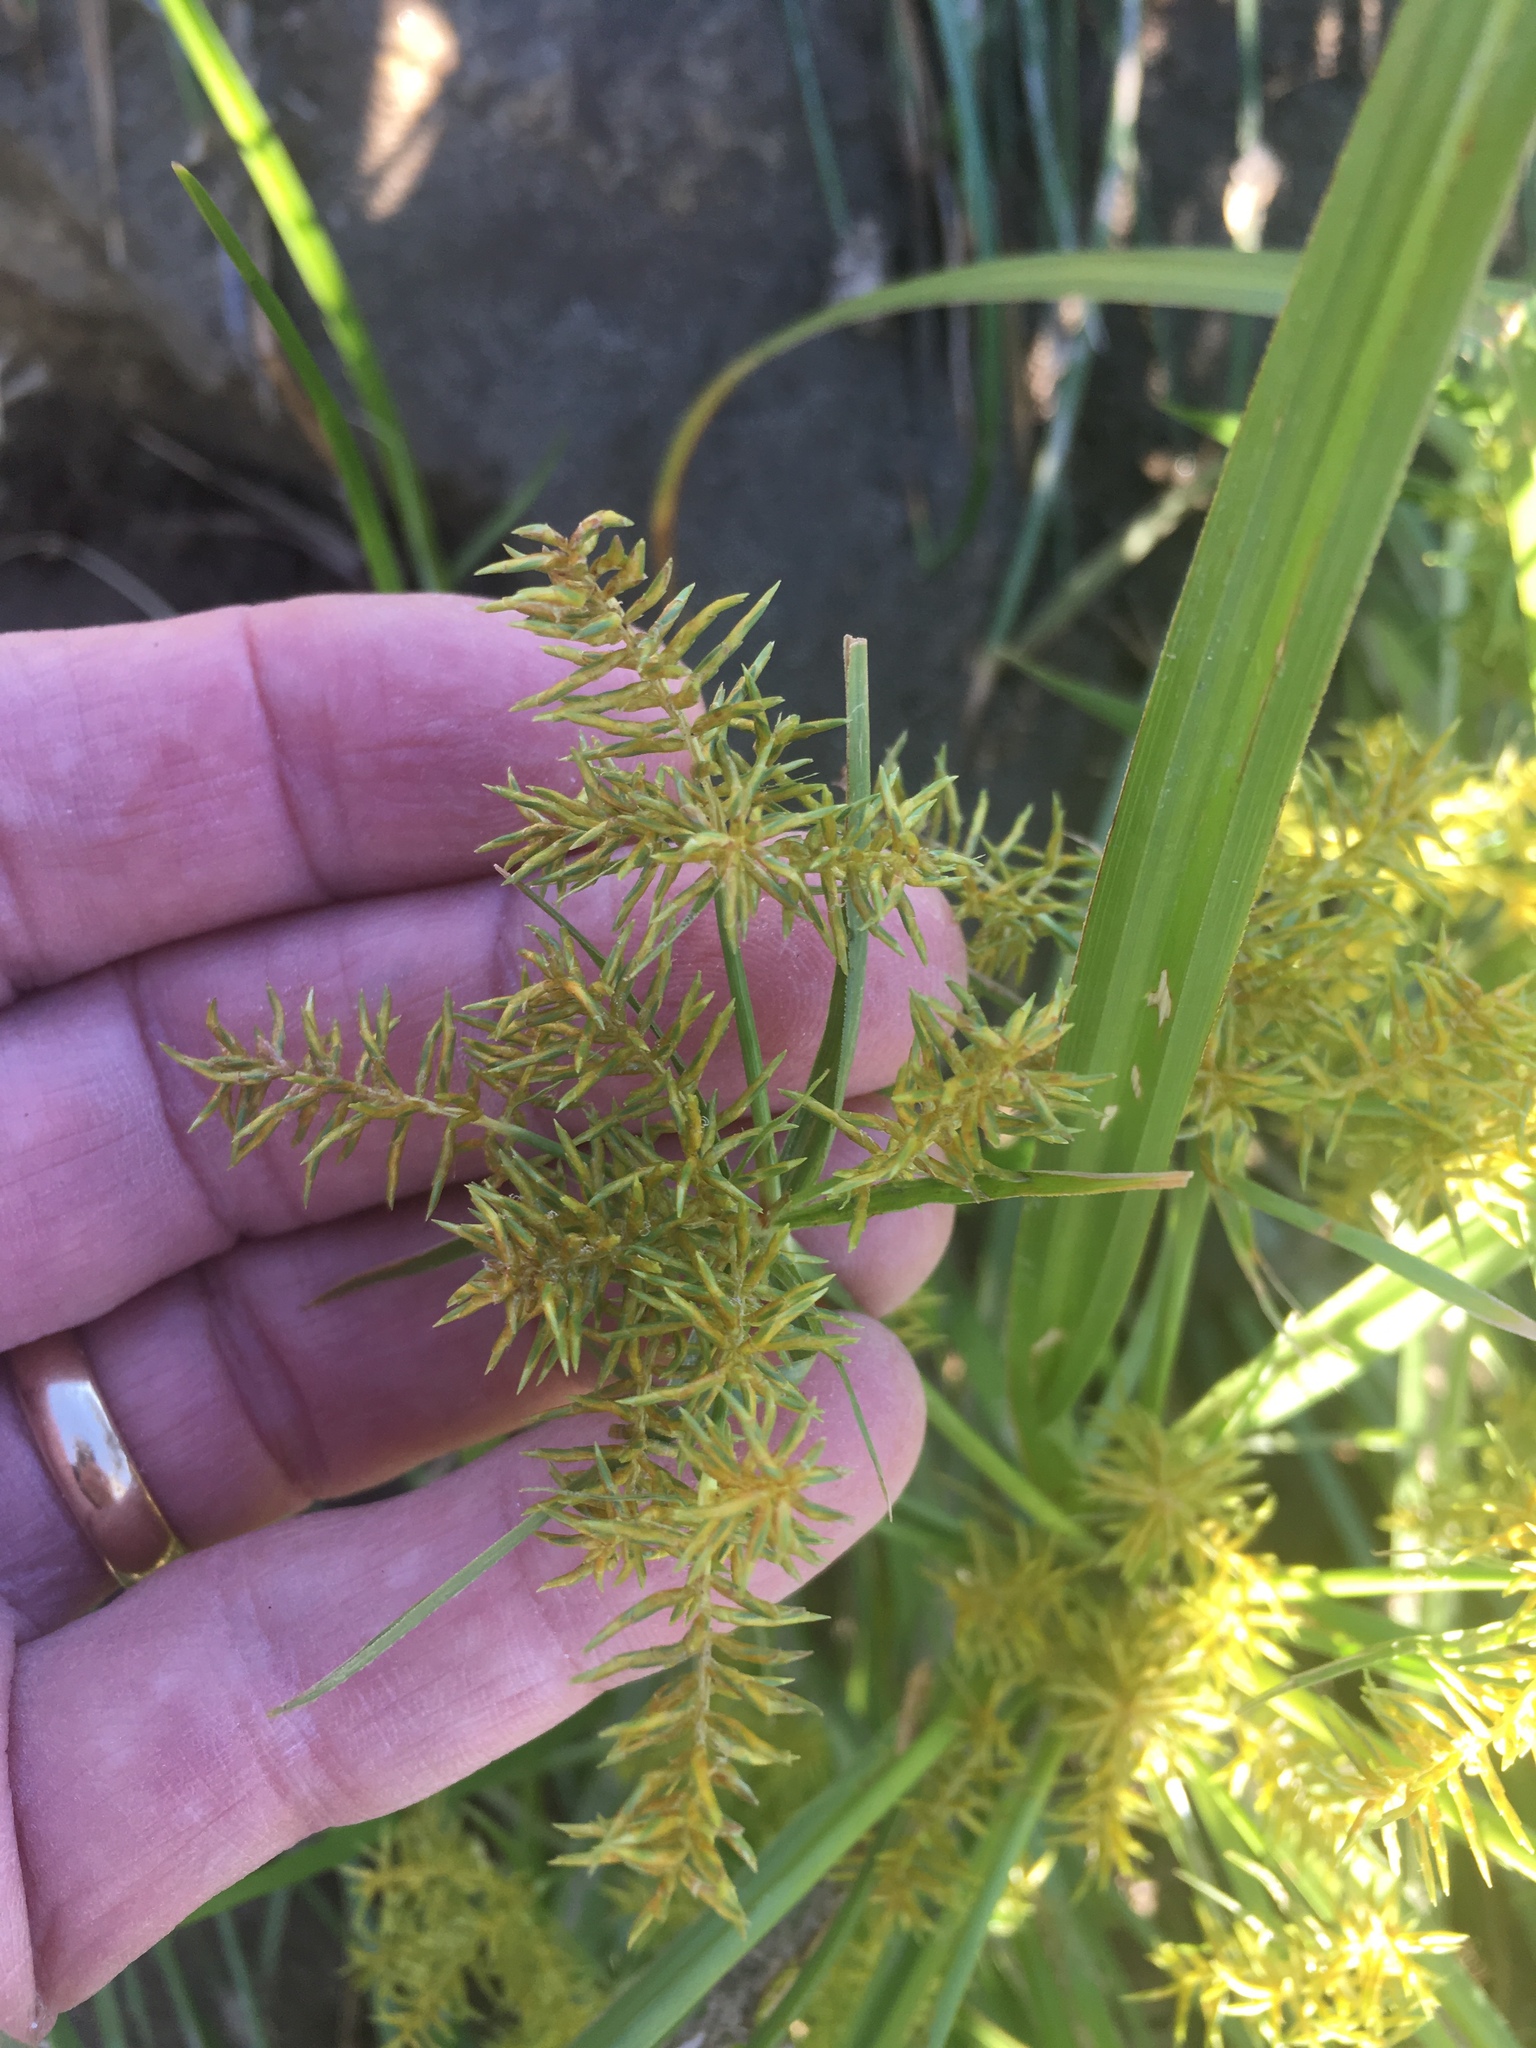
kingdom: Plantae
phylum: Tracheophyta
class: Liliopsida
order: Poales
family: Cyperaceae
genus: Cyperus
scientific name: Cyperus odoratus
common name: Fragrant flatsedge
